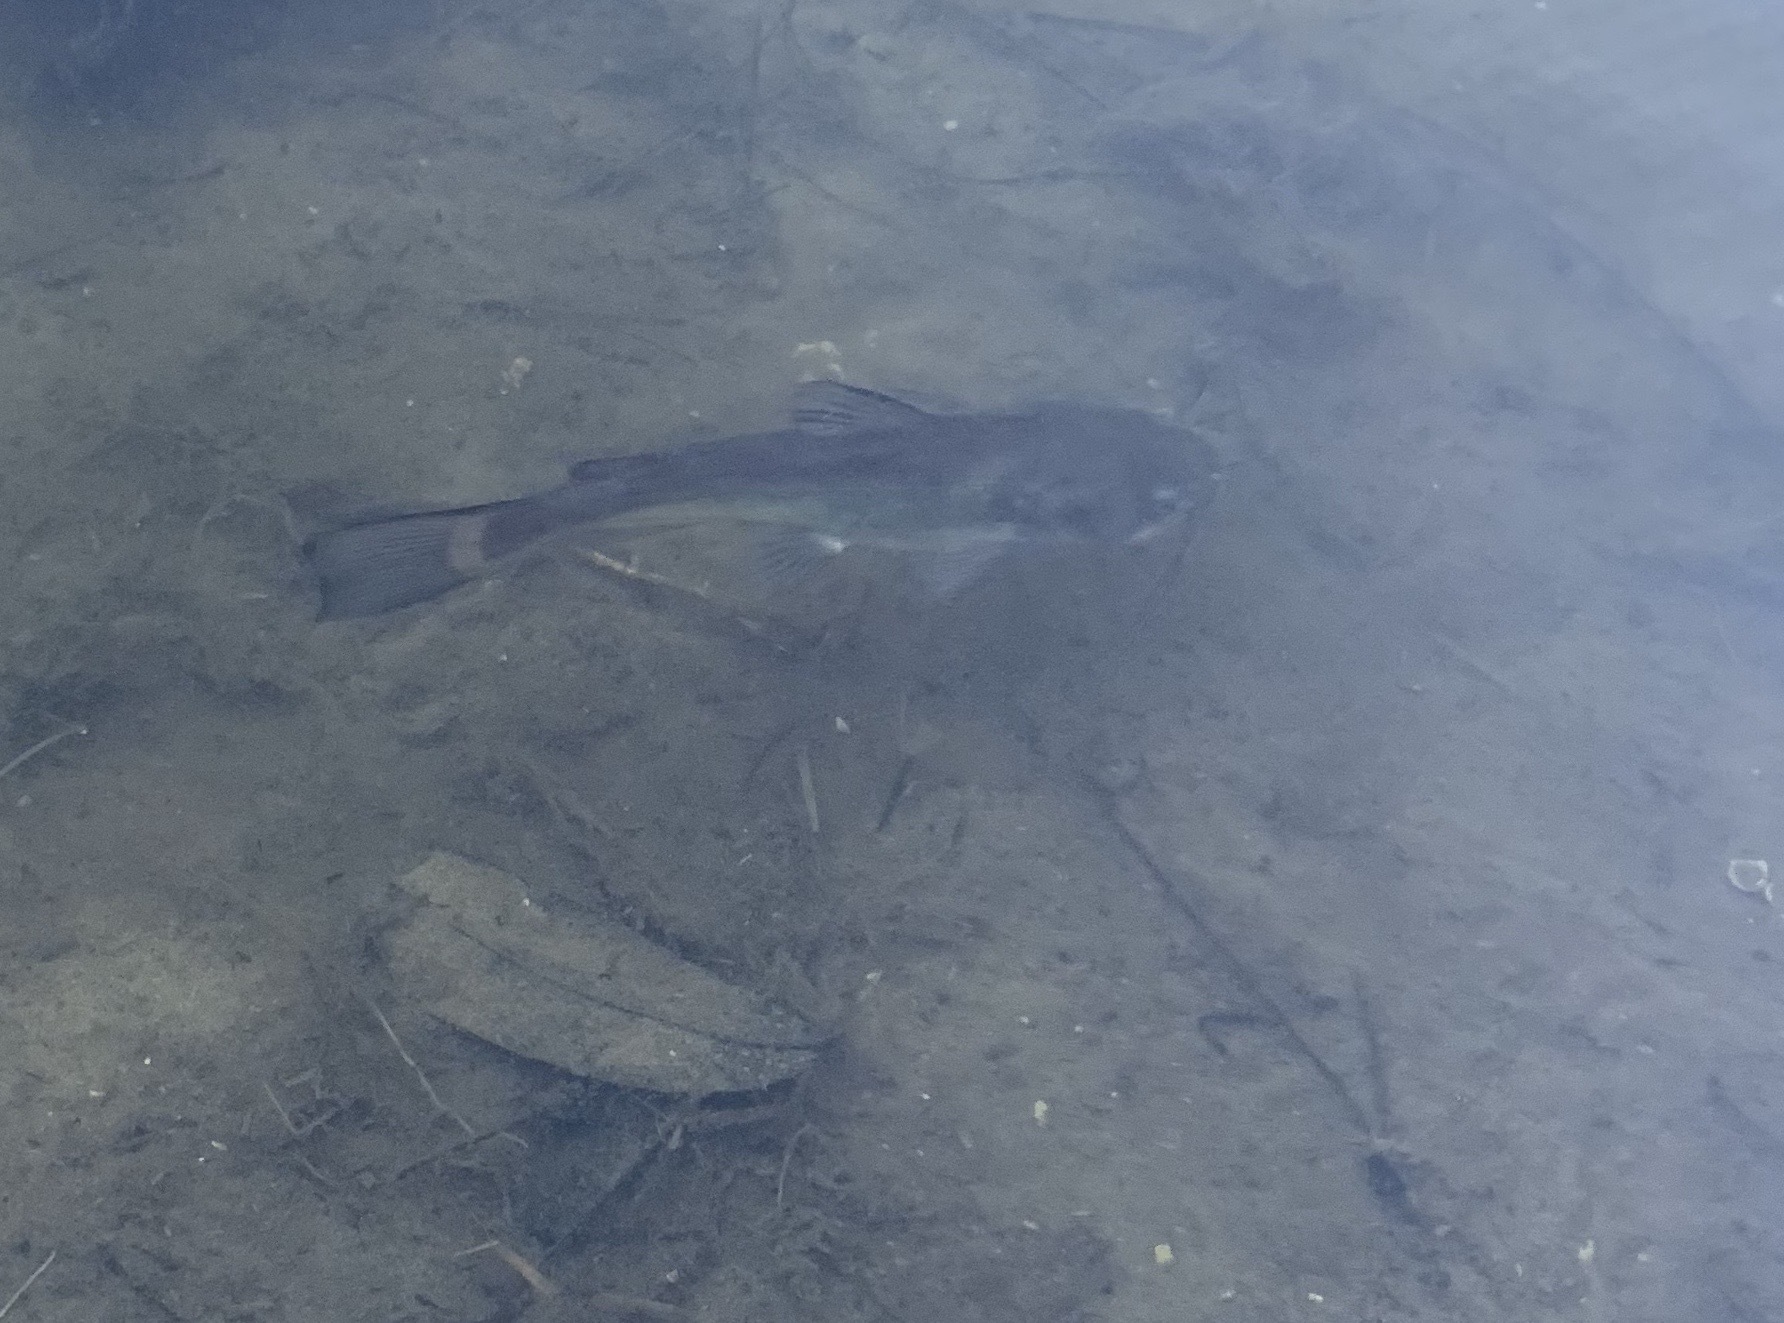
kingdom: Animalia
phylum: Chordata
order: Siluriformes
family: Ictaluridae
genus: Ictalurus
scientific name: Ictalurus punctatus
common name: Channel catfish
